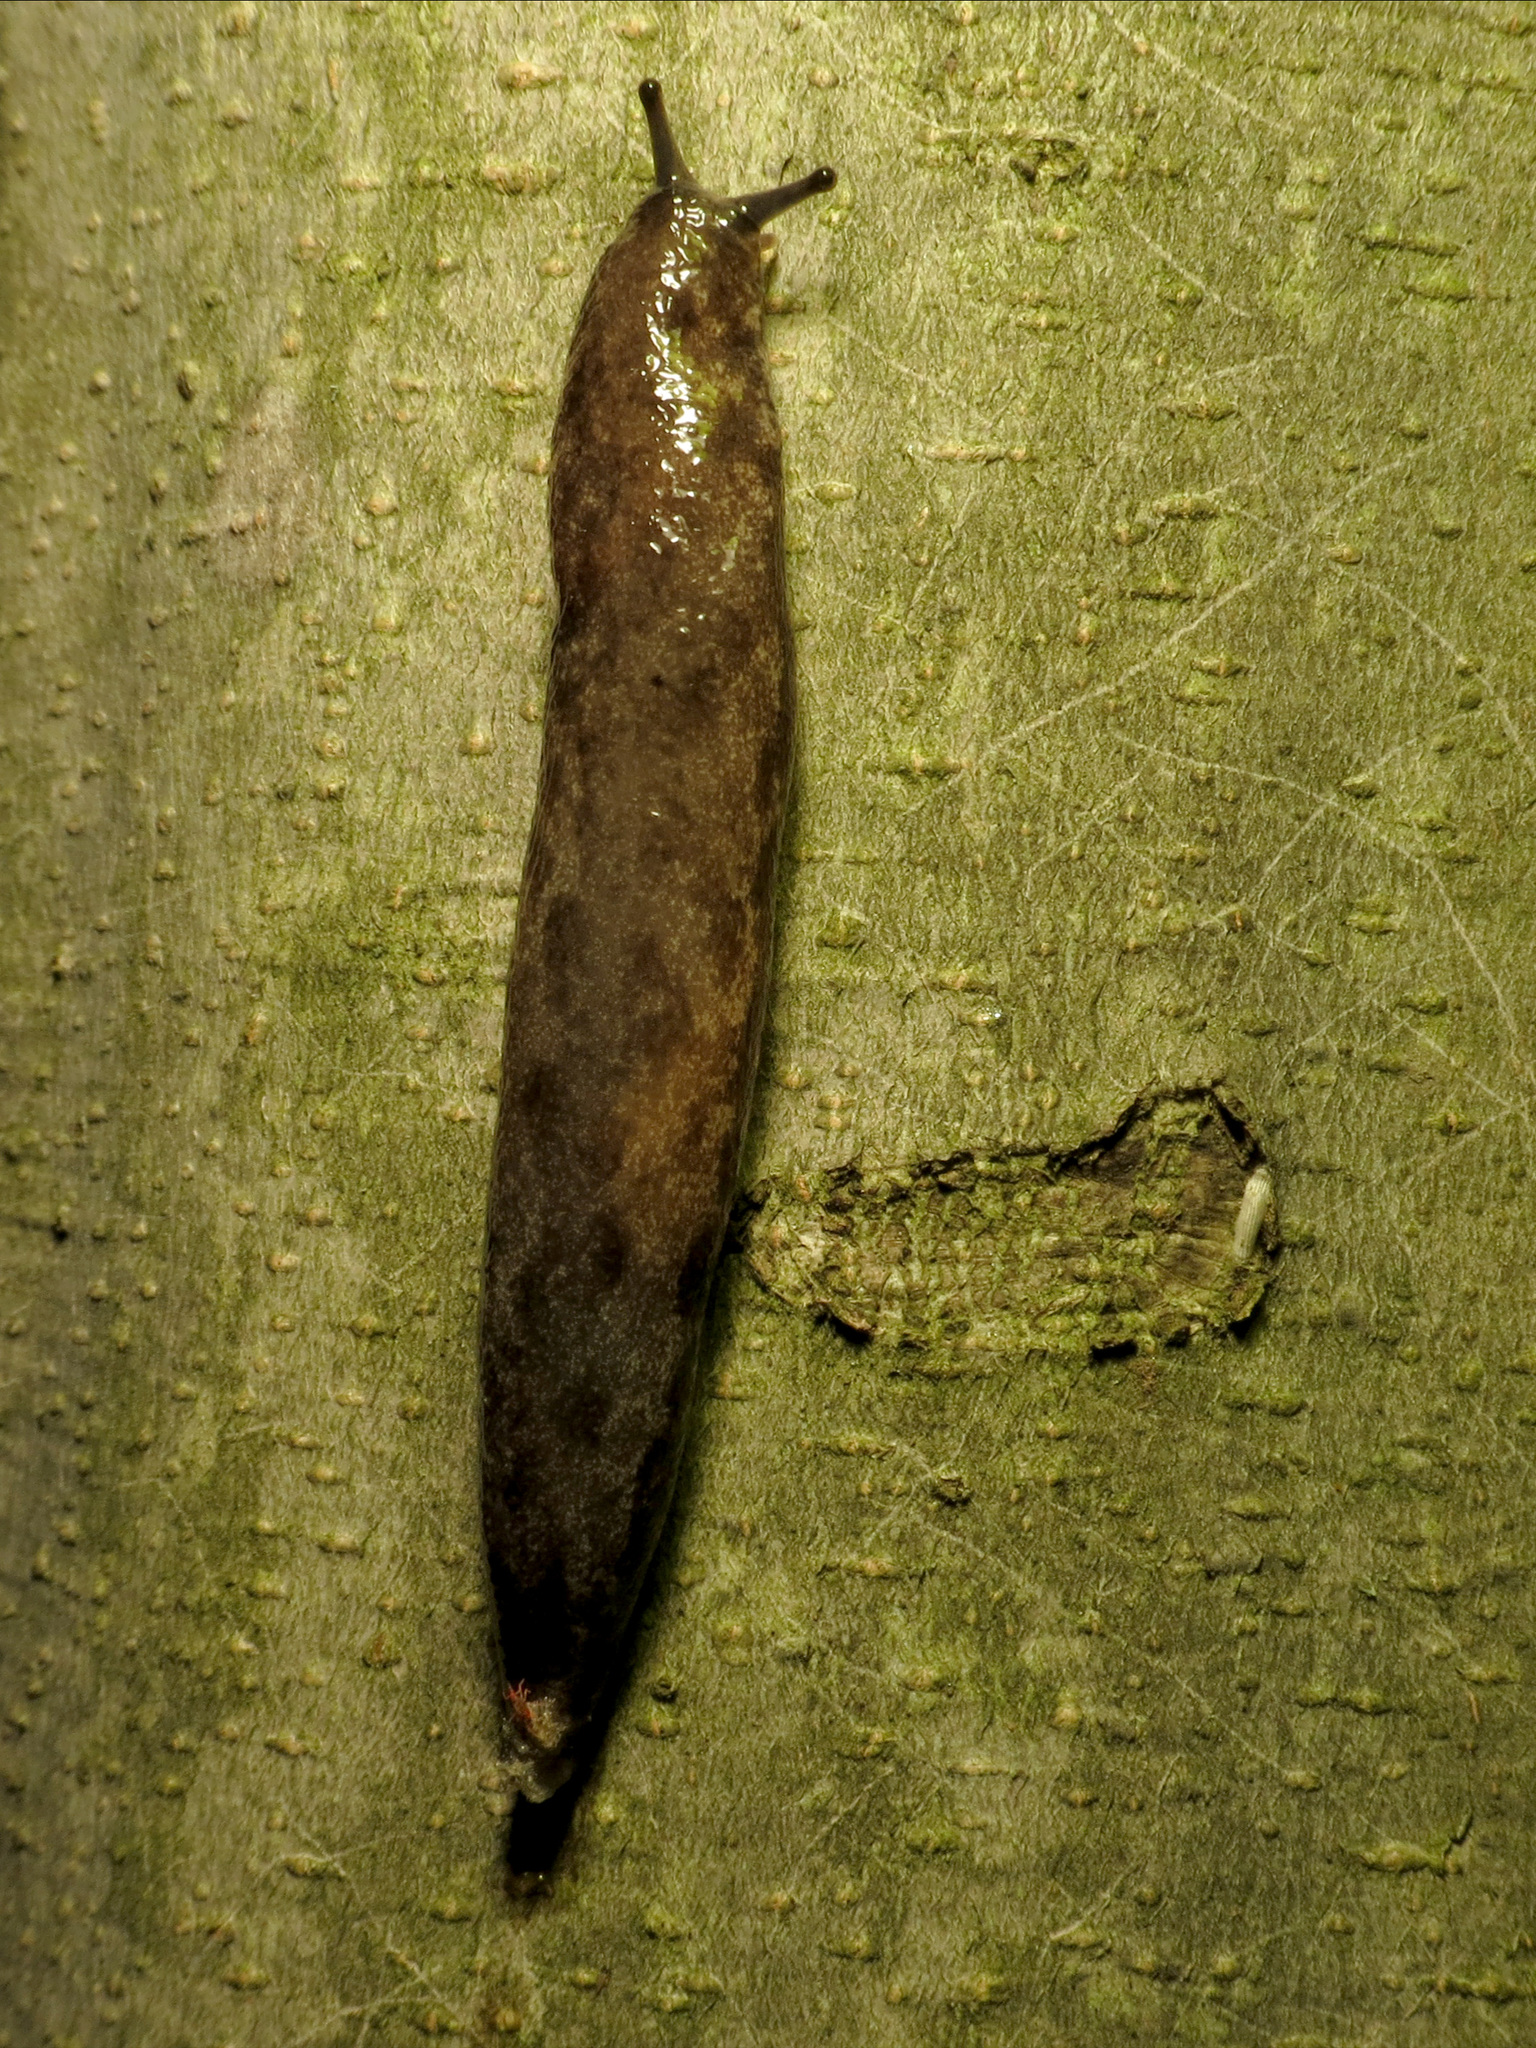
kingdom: Animalia
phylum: Mollusca
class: Gastropoda
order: Stylommatophora
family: Philomycidae
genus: Megapallifera
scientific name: Megapallifera mutabilis
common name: Changeable mantleslug
